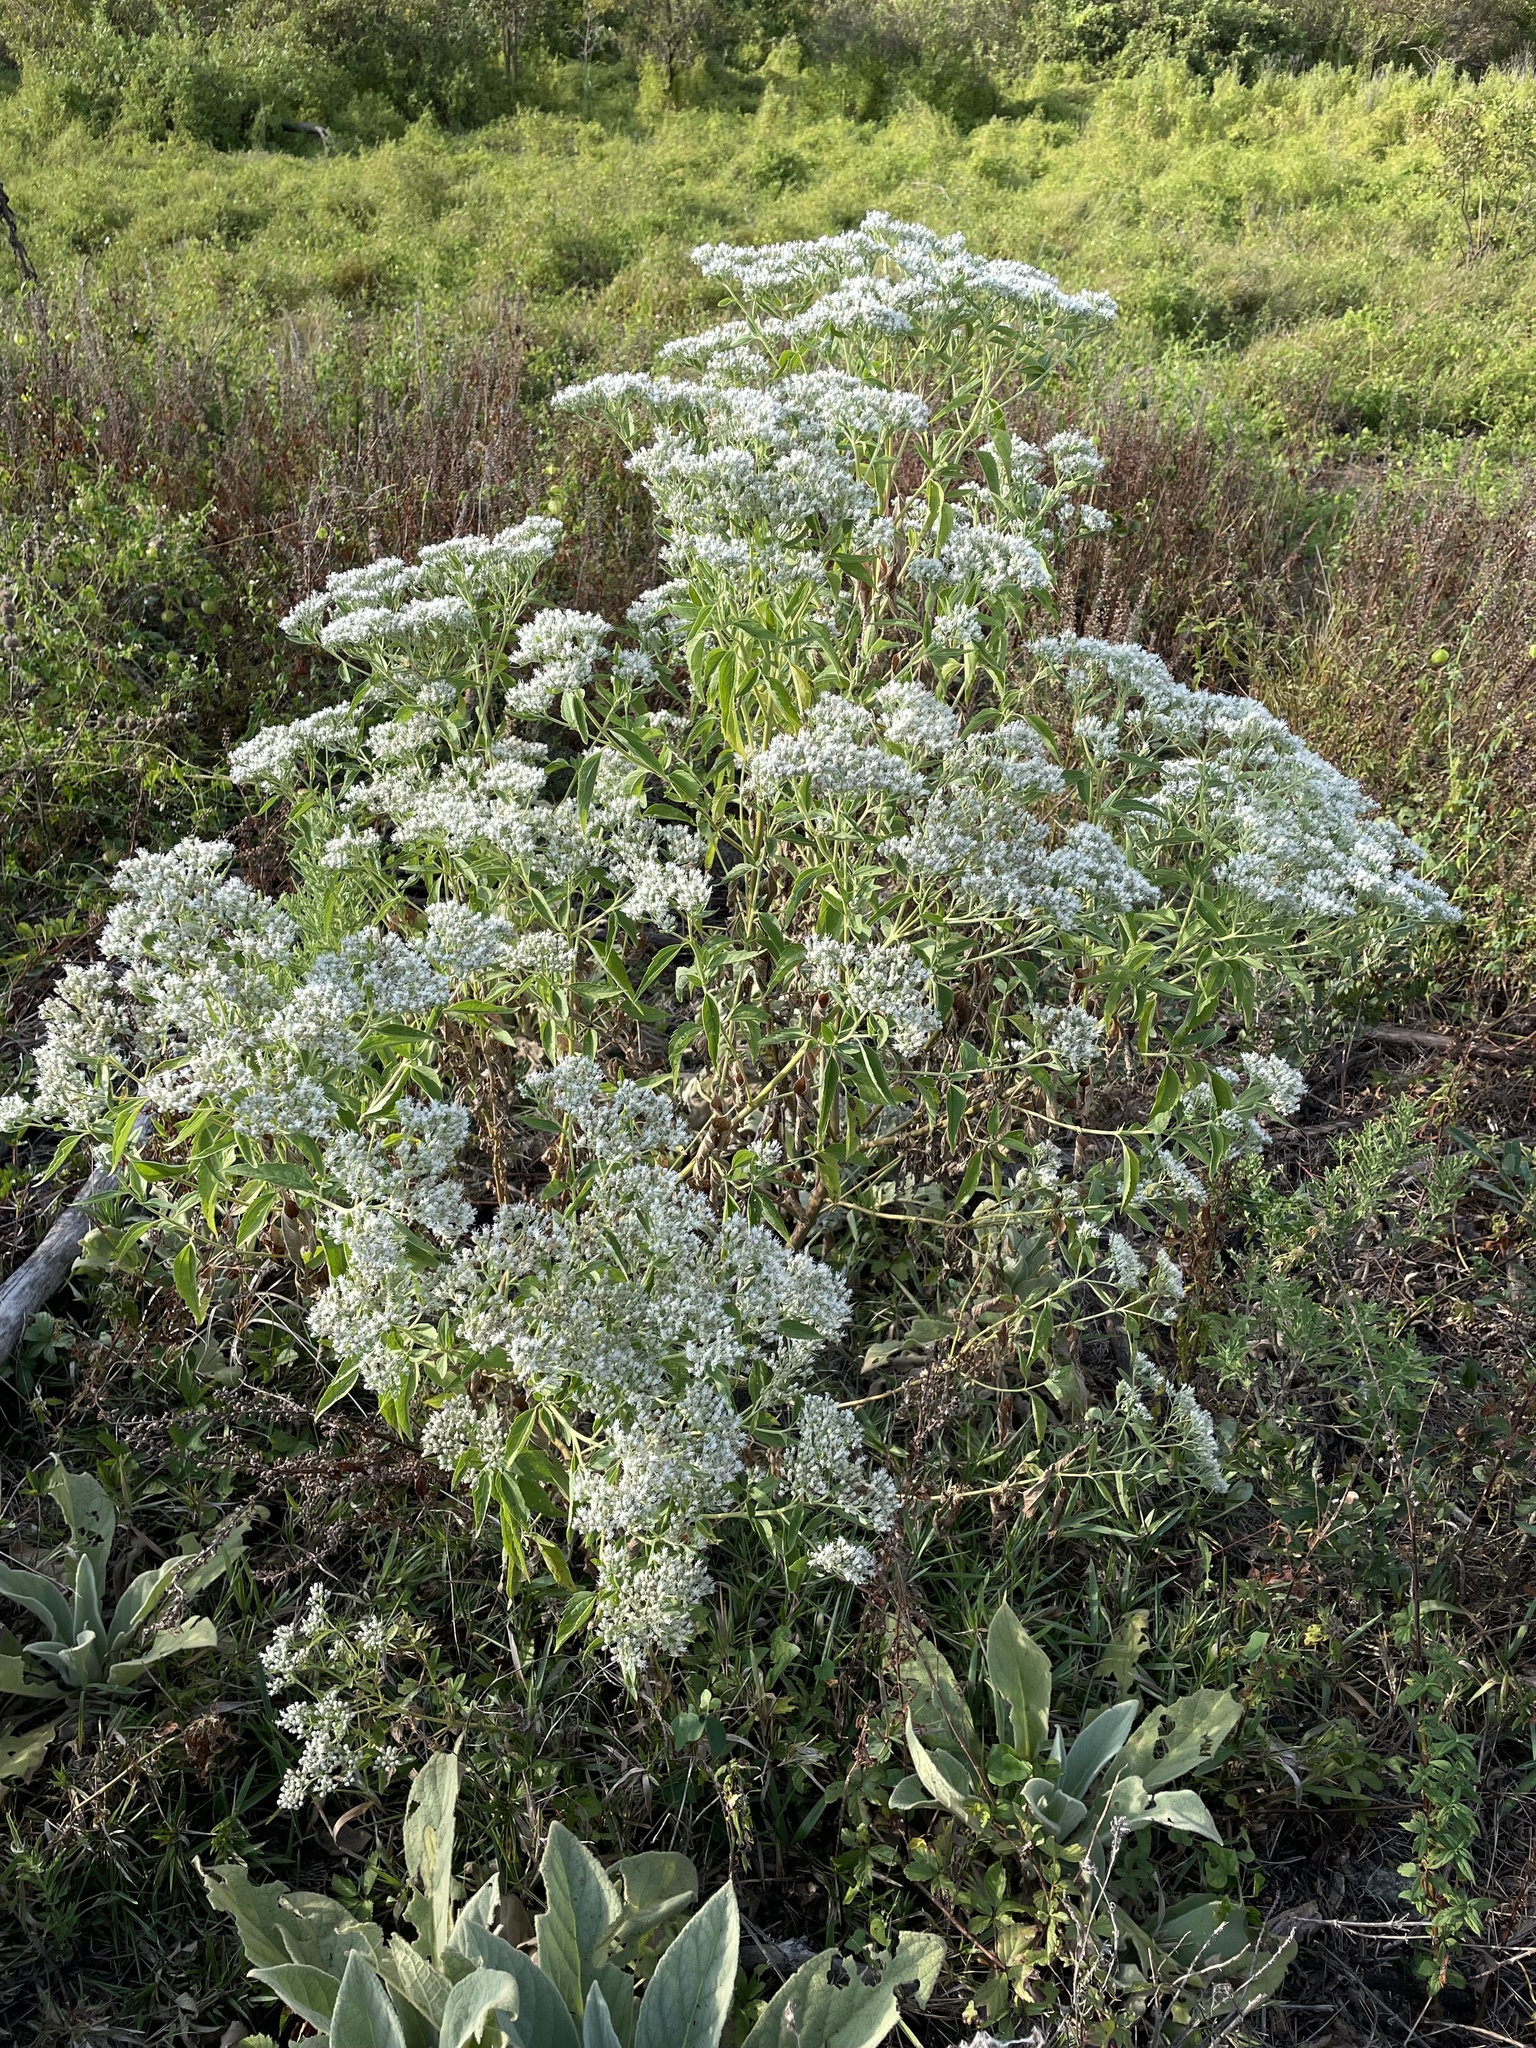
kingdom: Plantae
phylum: Tracheophyta
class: Magnoliopsida
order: Asterales
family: Asteraceae
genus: Eupatorium
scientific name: Eupatorium serotinum
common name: Late boneset
